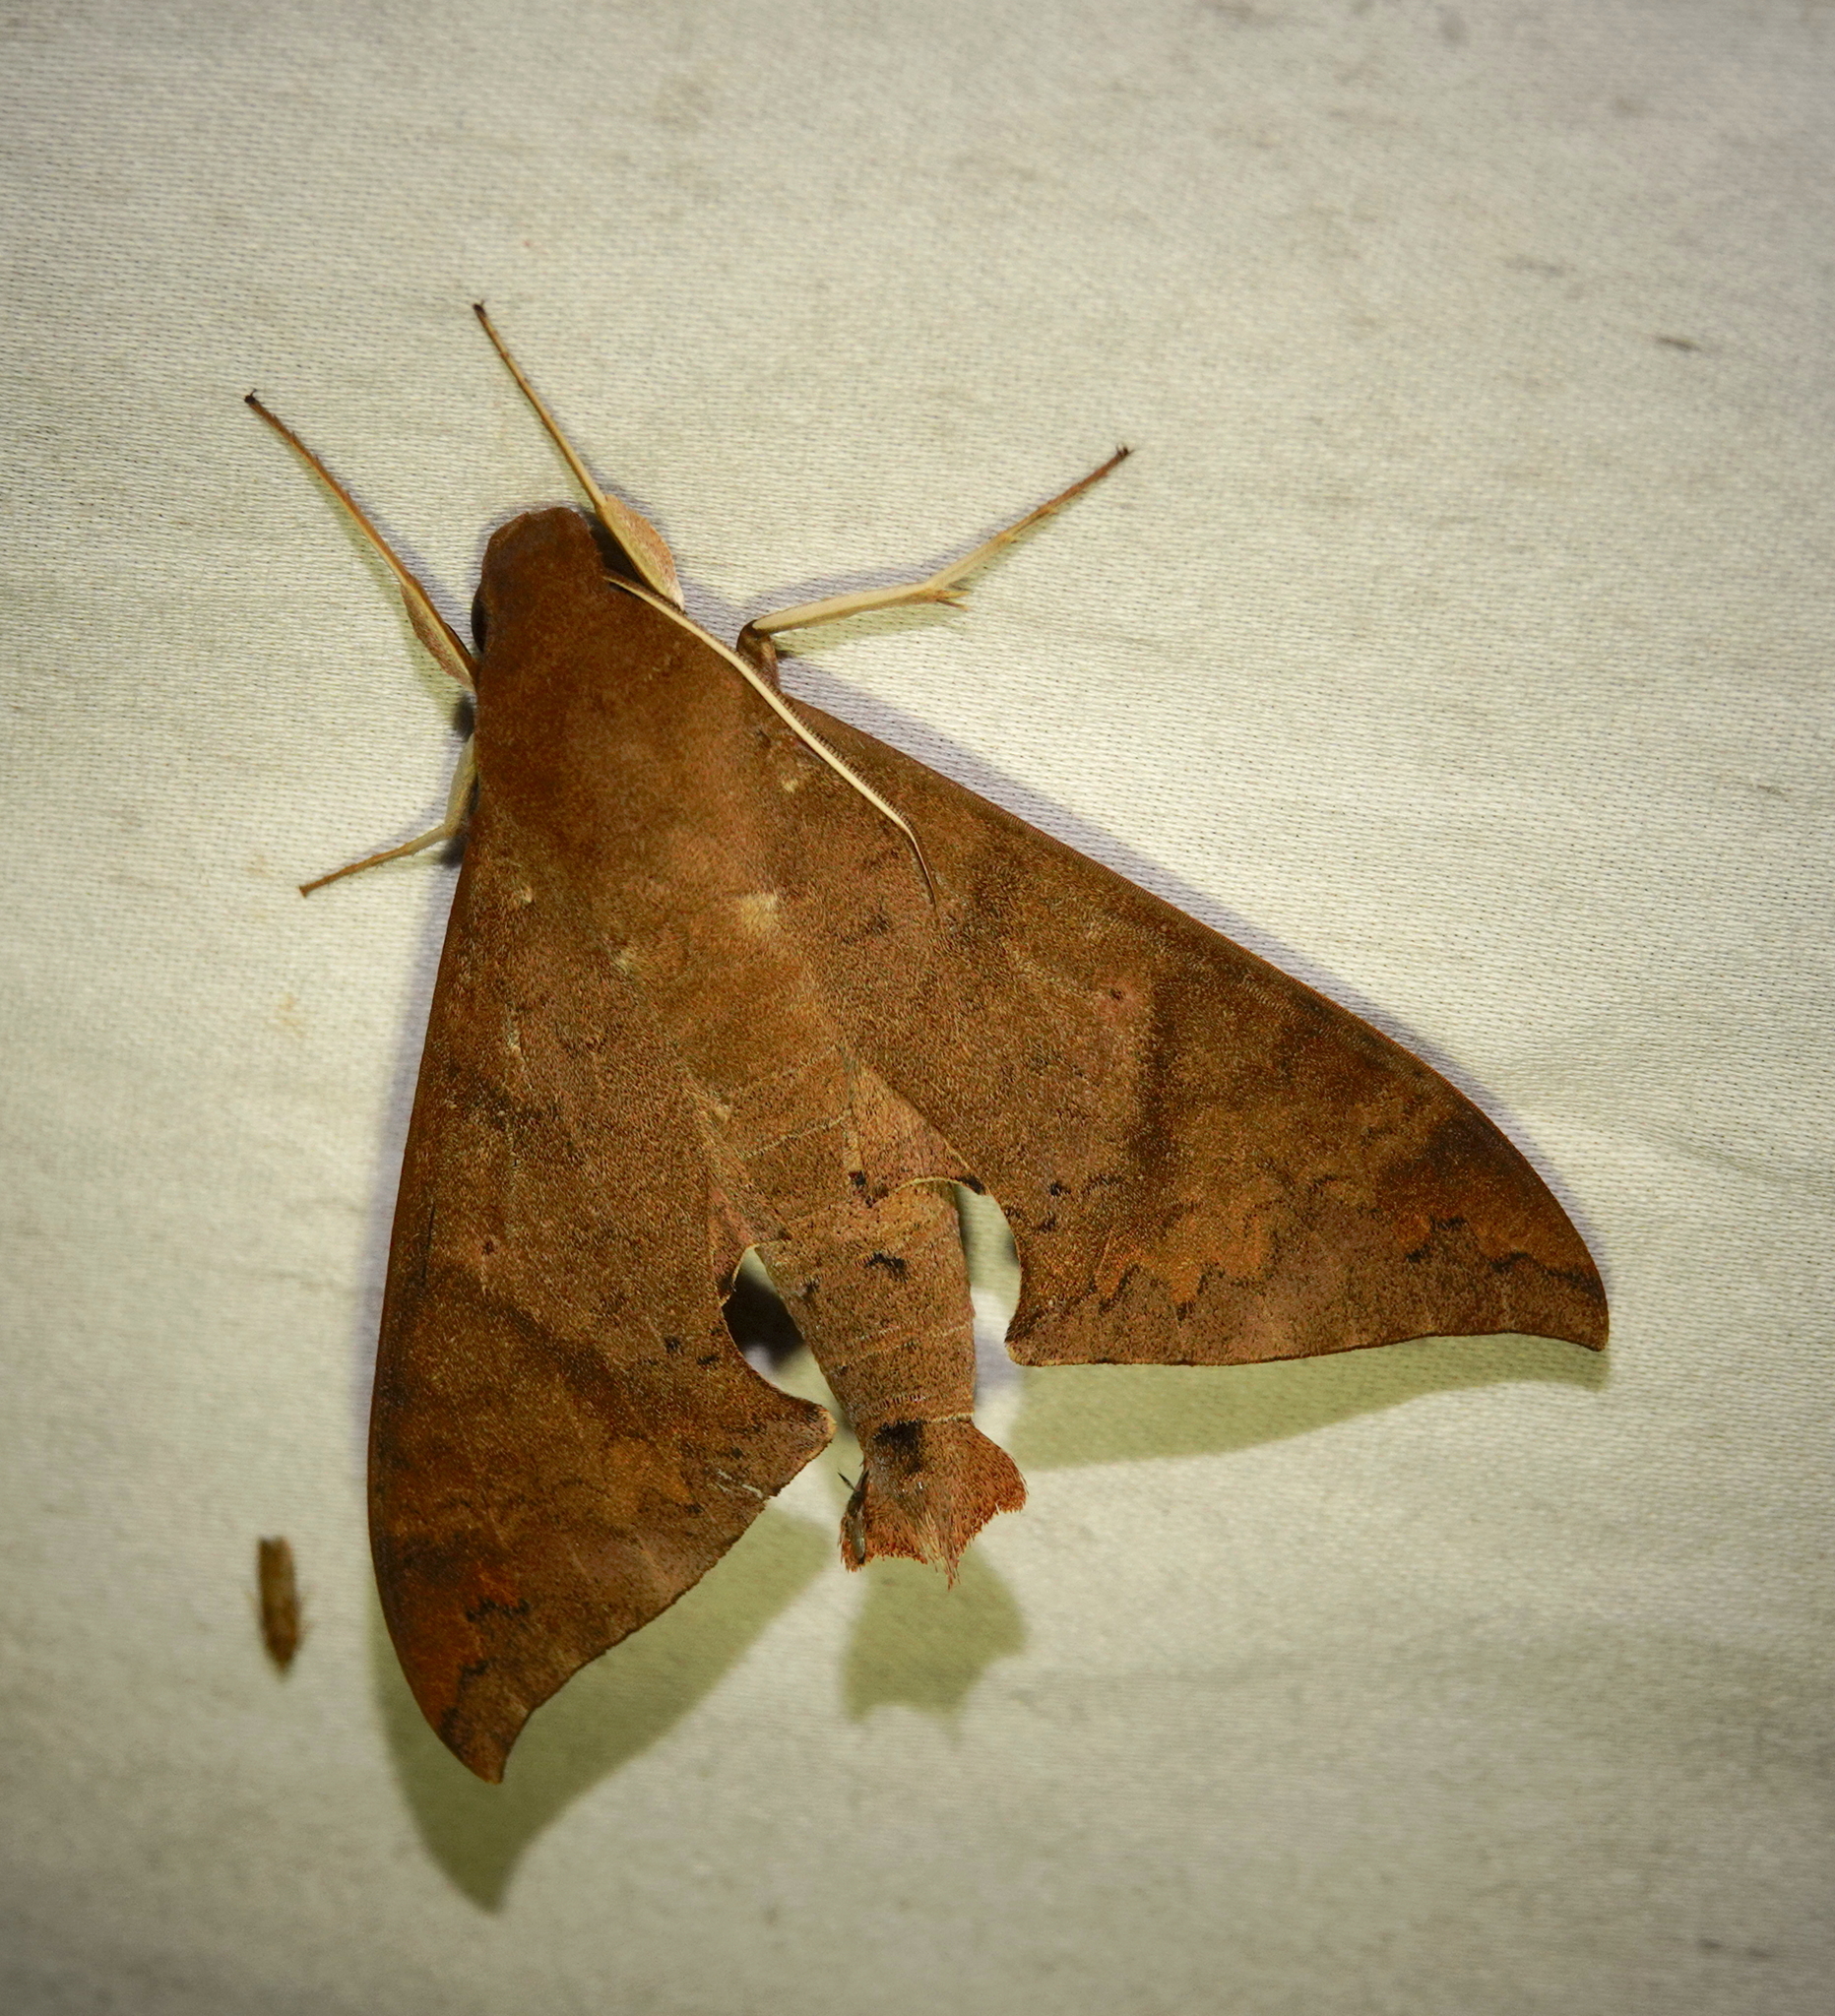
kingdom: Animalia
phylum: Arthropoda
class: Insecta
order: Lepidoptera
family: Sphingidae
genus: Pachylioides
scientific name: Pachylioides resumens
